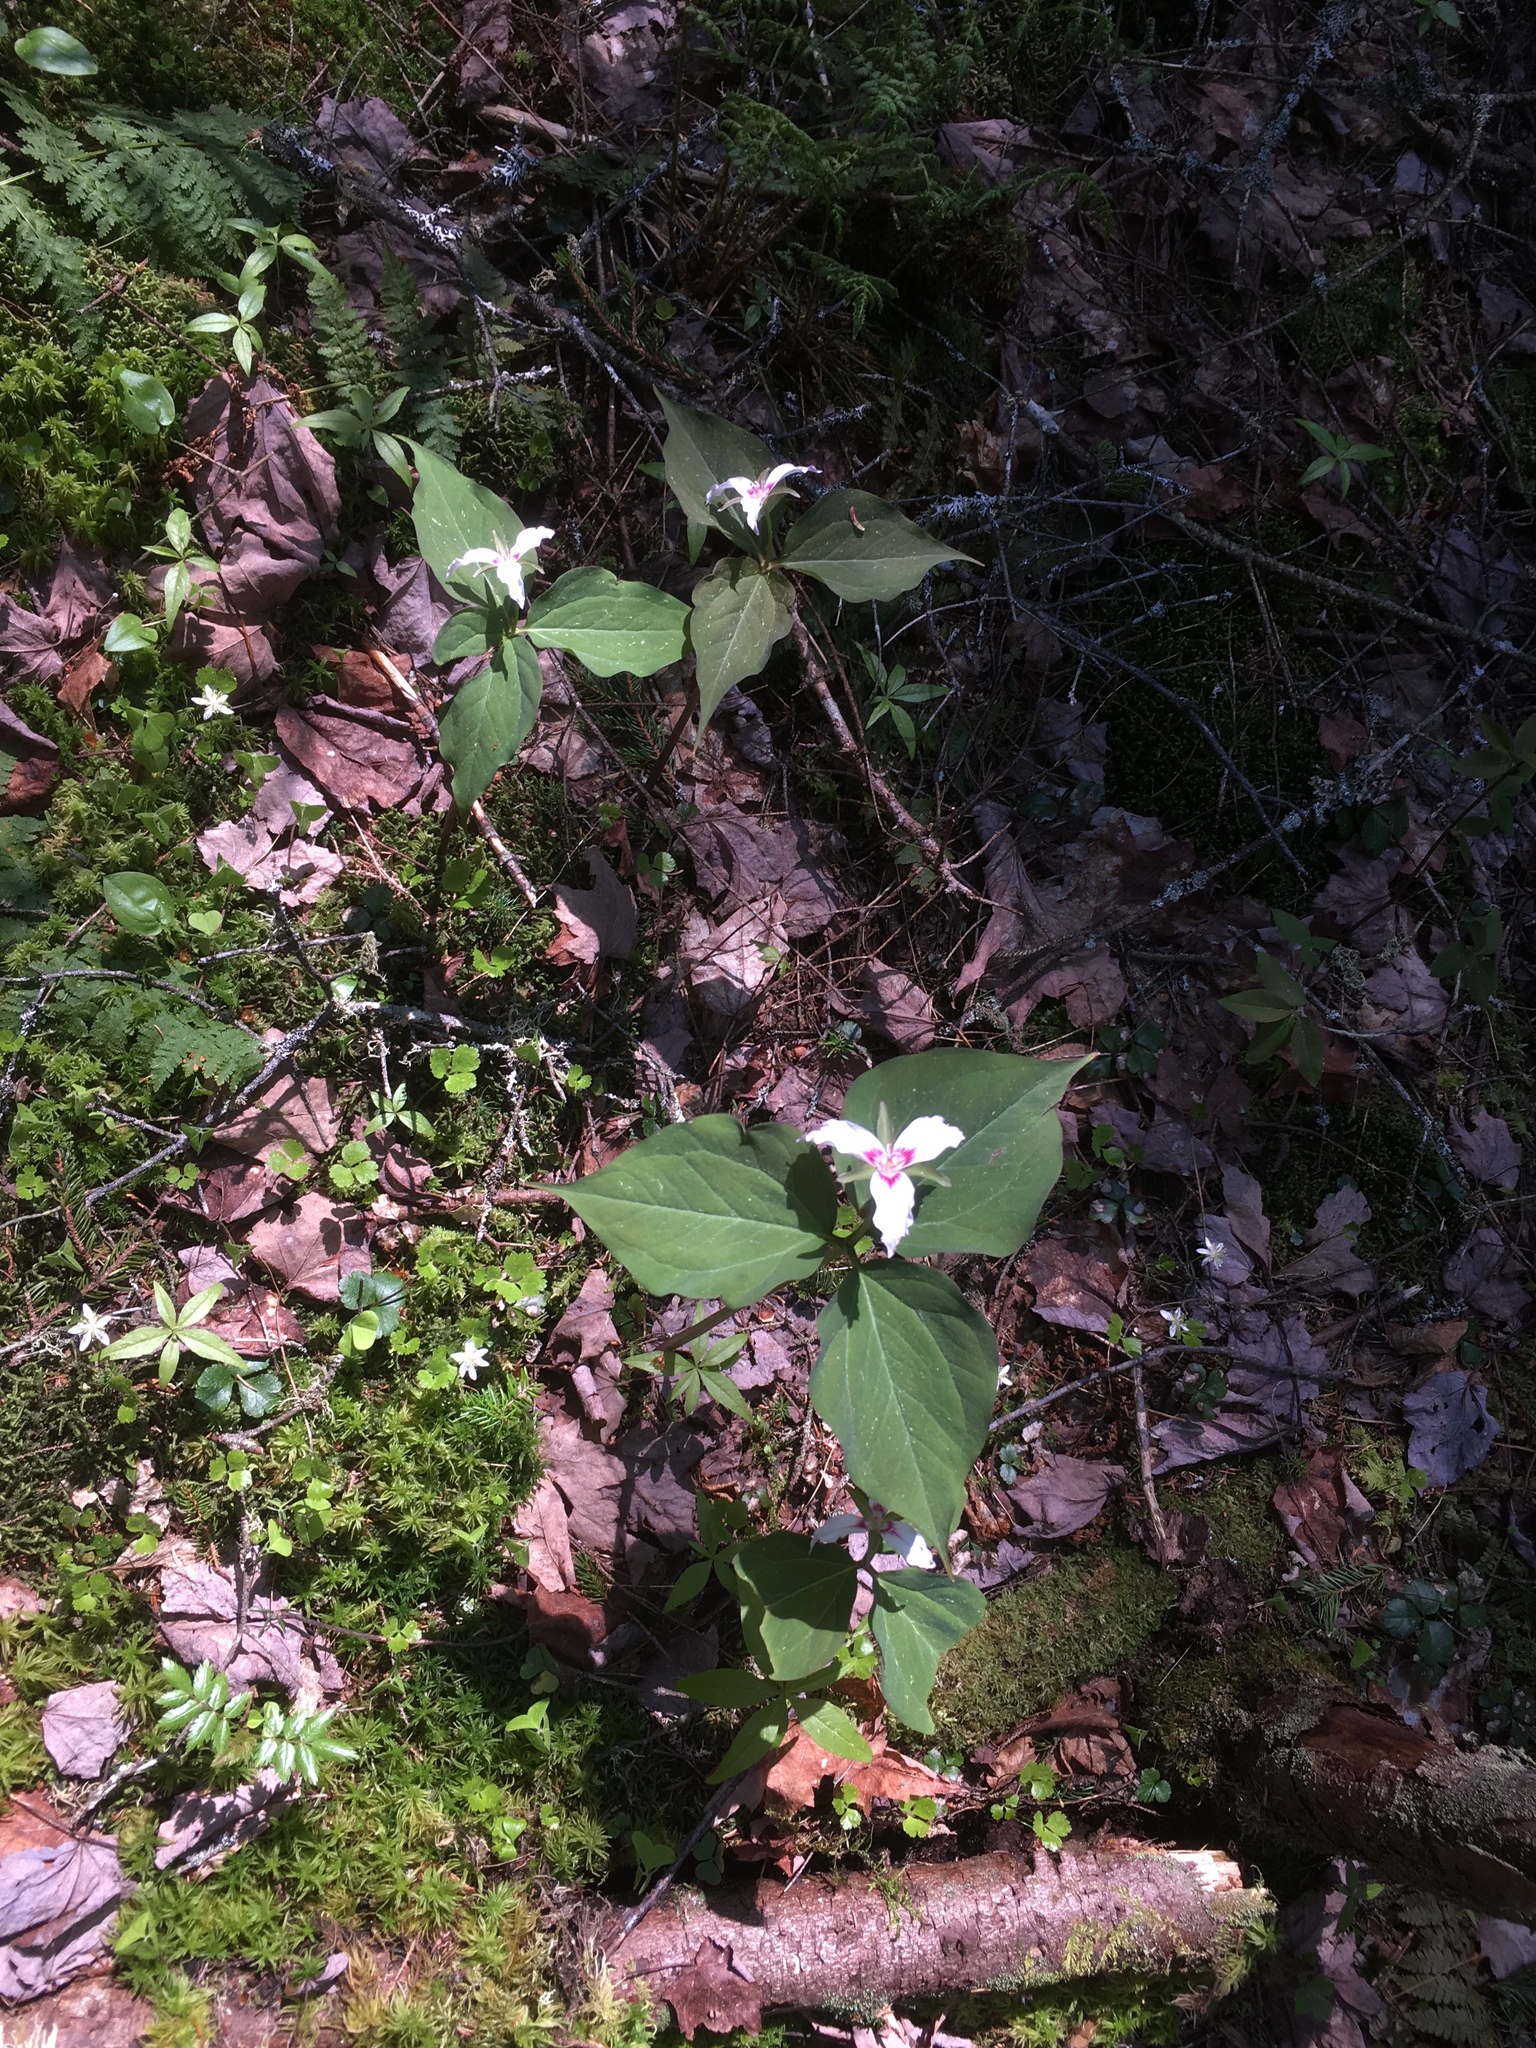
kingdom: Plantae
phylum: Tracheophyta
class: Liliopsida
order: Liliales
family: Melanthiaceae
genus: Trillium
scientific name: Trillium undulatum
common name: Paint trillium
